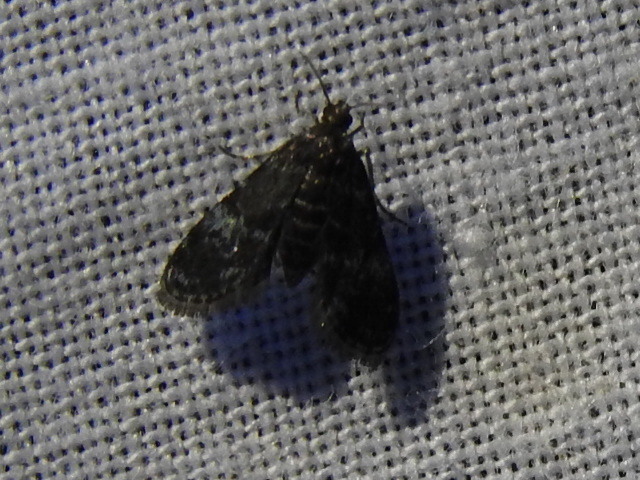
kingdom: Animalia
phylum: Arthropoda
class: Insecta
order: Lepidoptera
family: Crambidae
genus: Elophila
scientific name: Elophila tinealis
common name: Black duckweed moth
